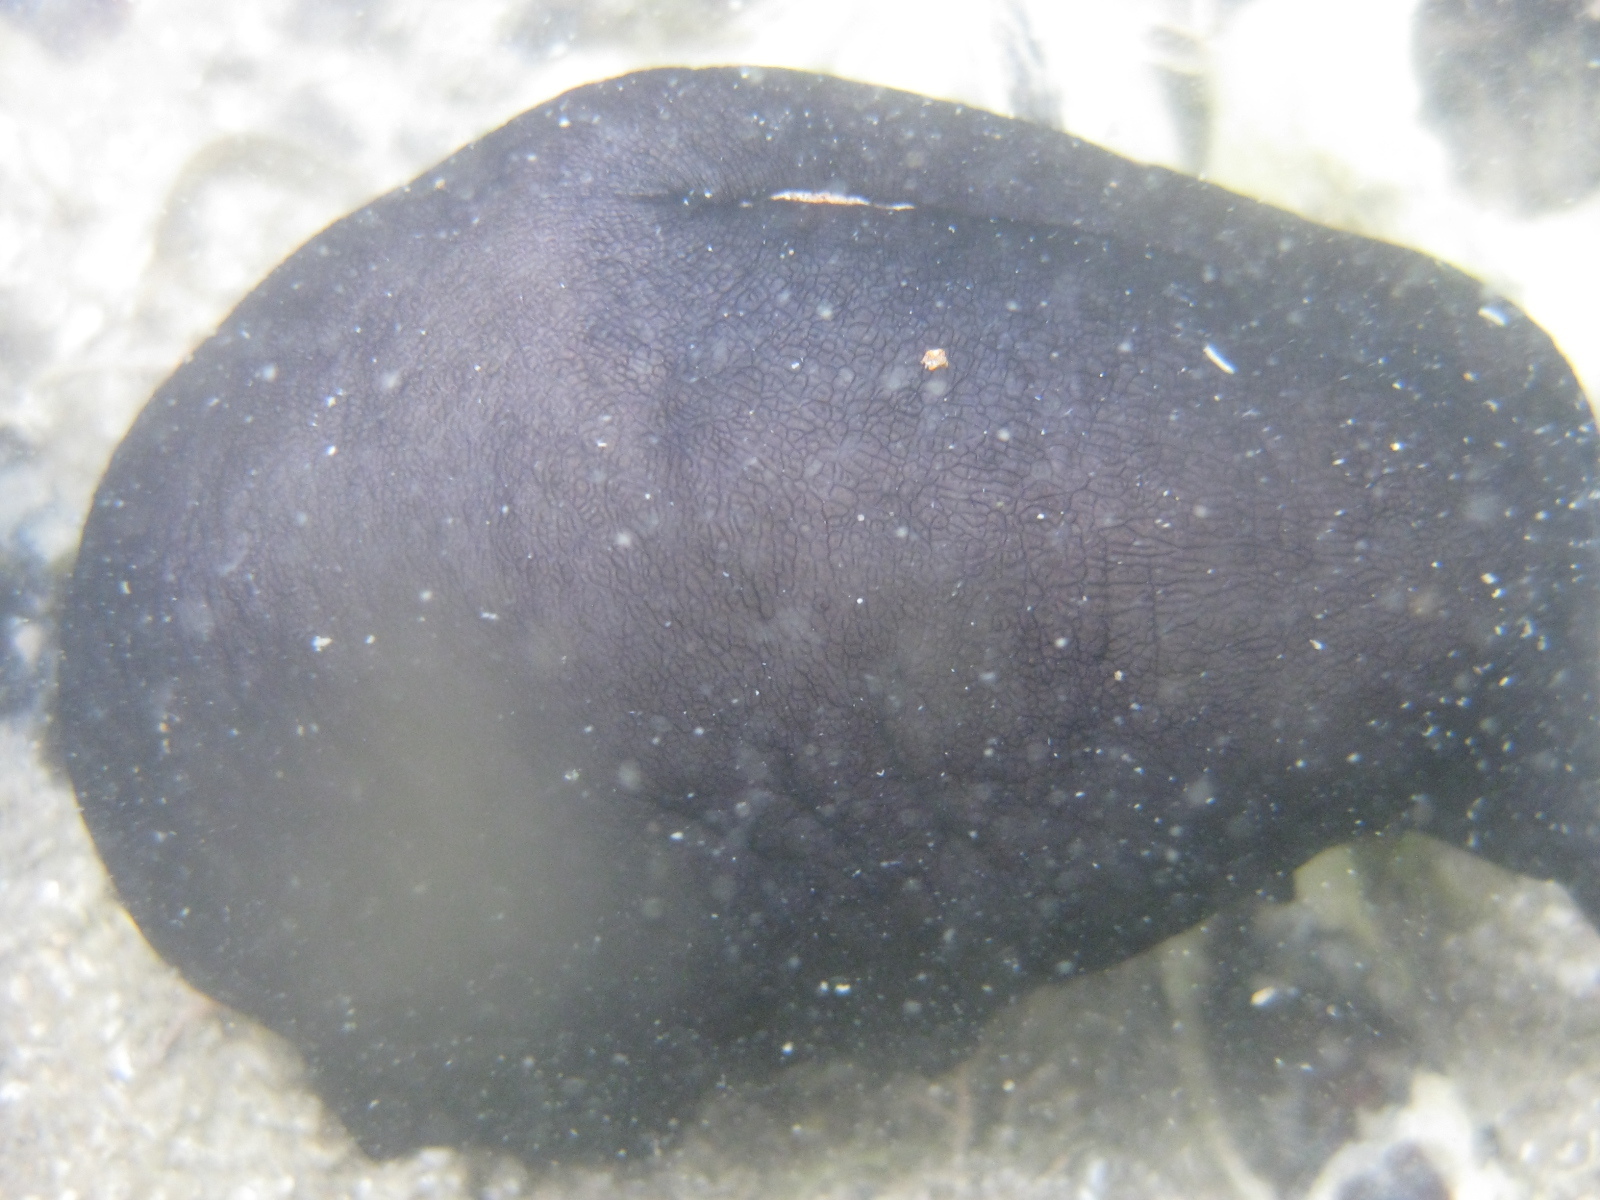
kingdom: Animalia
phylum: Mollusca
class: Gastropoda
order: Lepetellida
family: Fissurellidae
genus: Scutus
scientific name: Scutus breviculus
